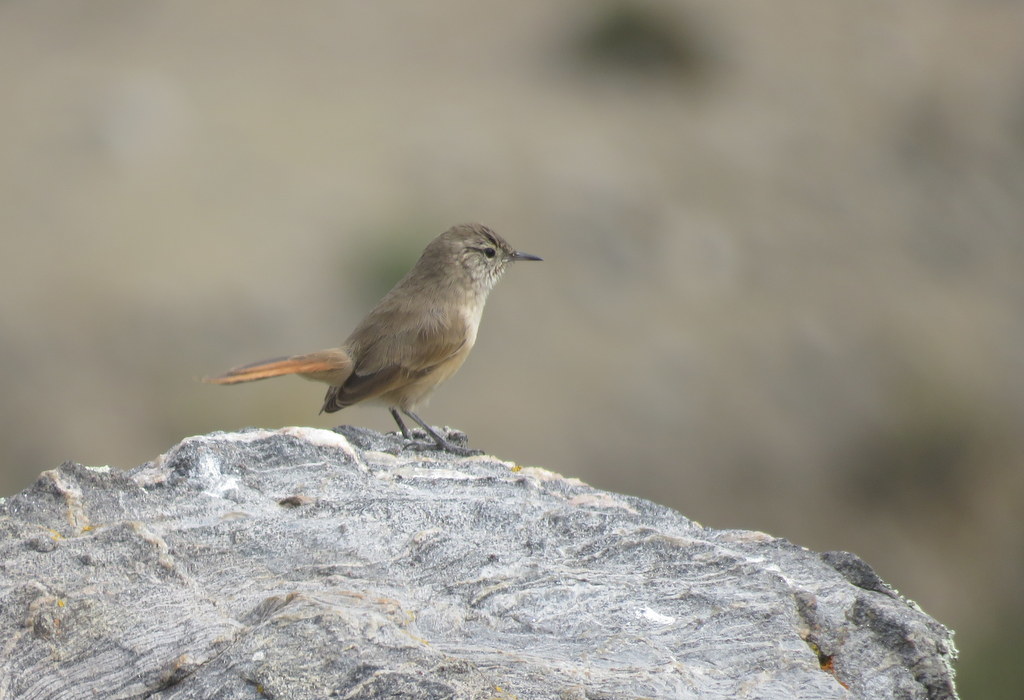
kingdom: Animalia
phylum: Chordata
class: Aves
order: Passeriformes
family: Furnariidae
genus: Asthenes
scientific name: Asthenes modesta
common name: Cordilleran canastero
